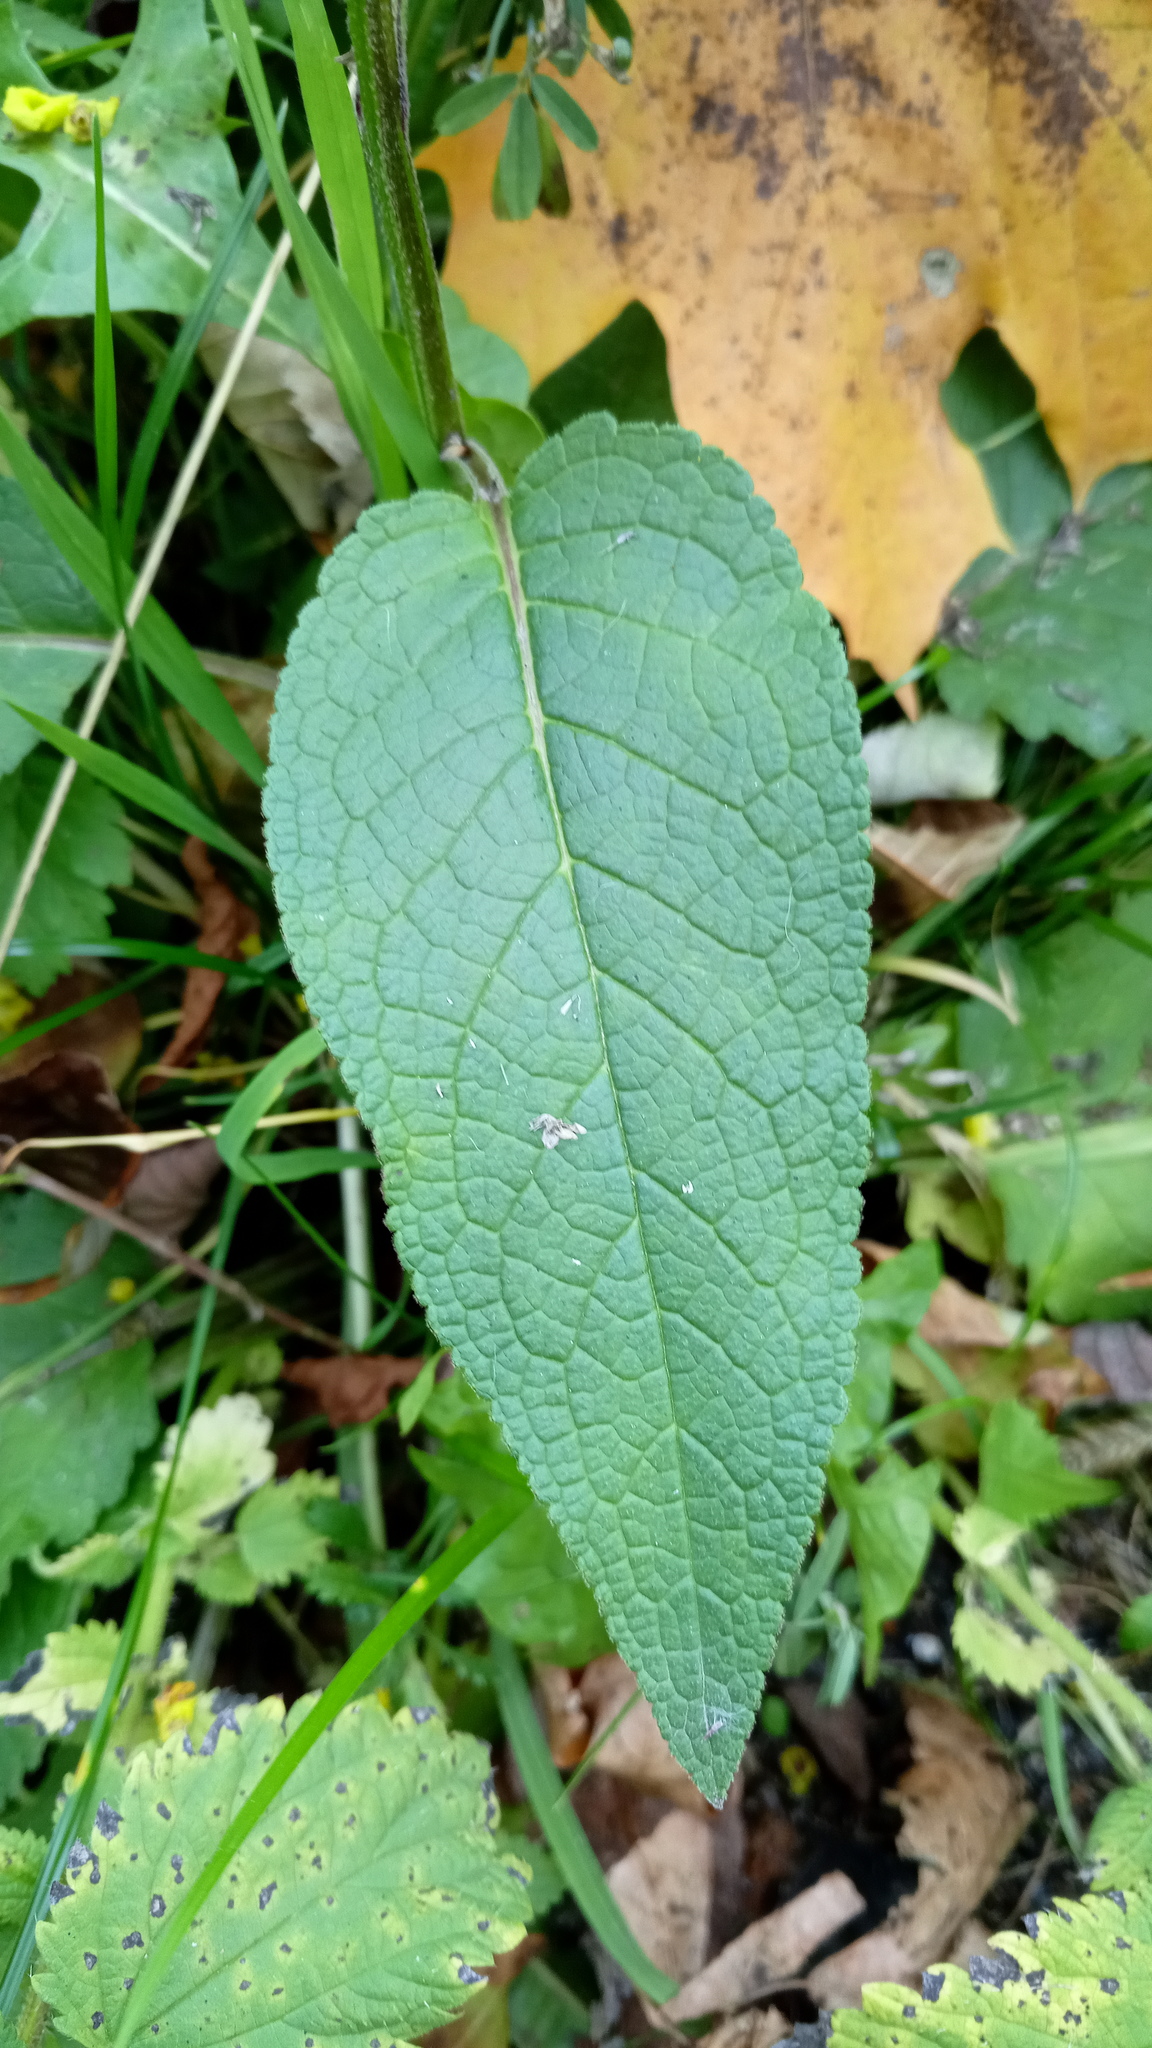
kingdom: Plantae
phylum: Tracheophyta
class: Magnoliopsida
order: Lamiales
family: Scrophulariaceae
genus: Verbascum
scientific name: Verbascum nigrum
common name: Dark mullein
